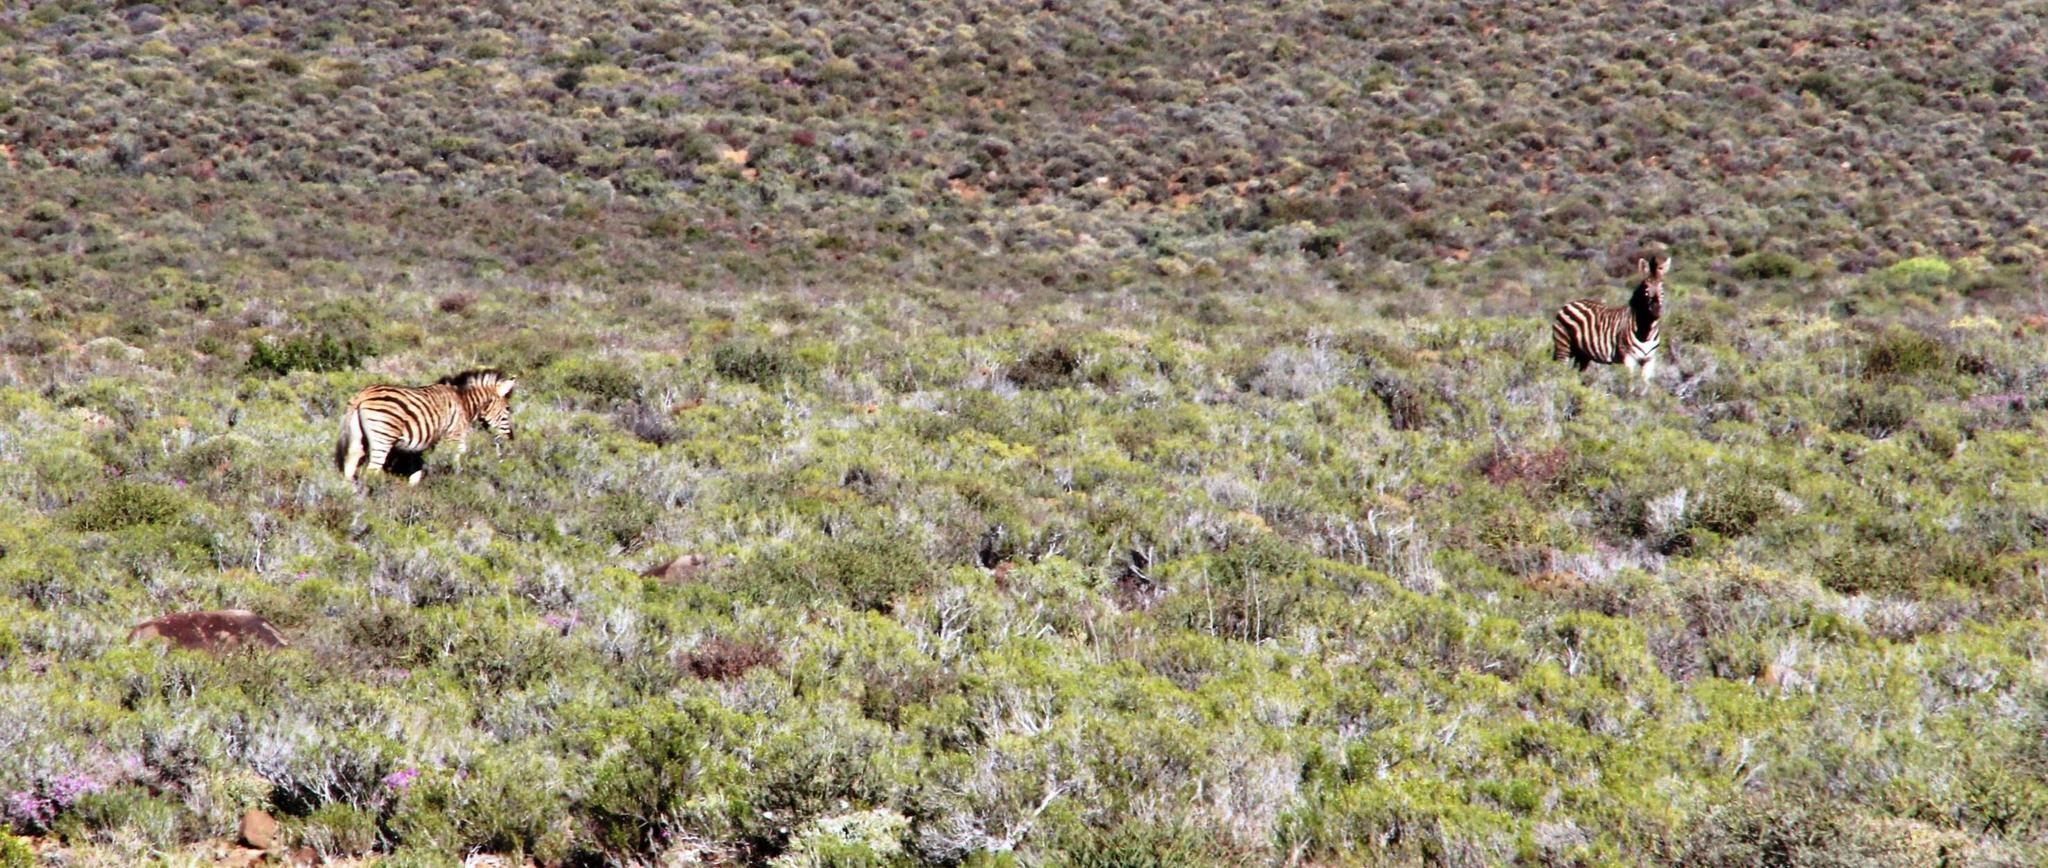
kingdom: Animalia
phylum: Chordata
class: Mammalia
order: Perissodactyla
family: Equidae
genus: Equus
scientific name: Equus quagga
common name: Plains zebra
